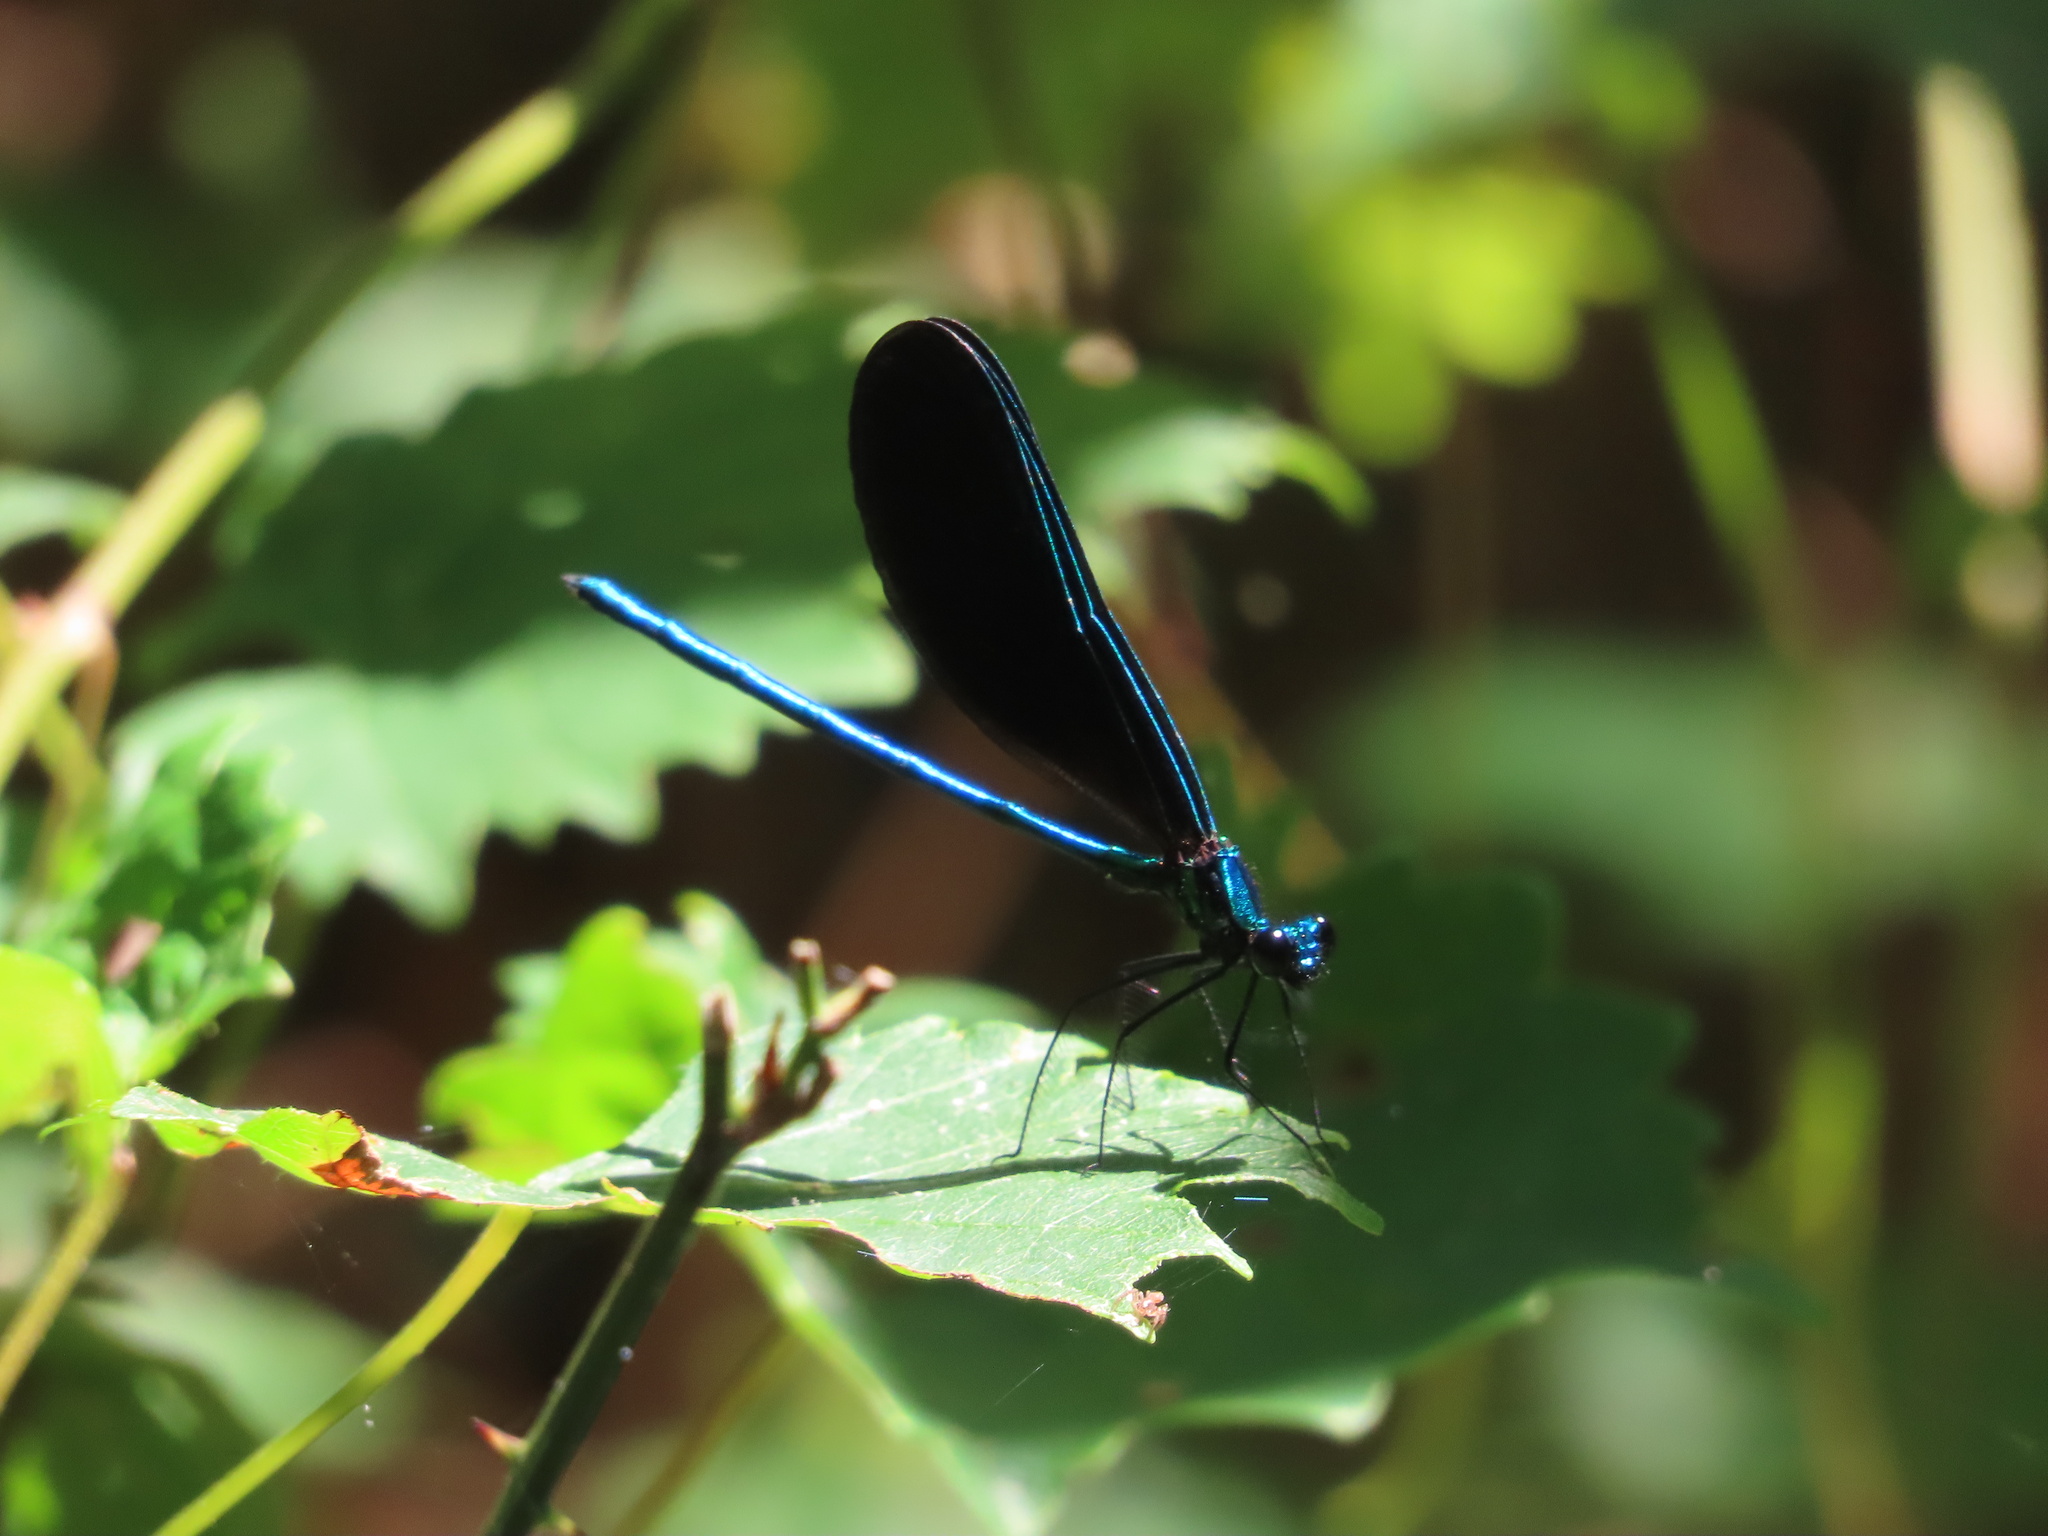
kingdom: Animalia
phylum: Arthropoda
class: Insecta
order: Odonata
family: Calopterygidae
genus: Calopteryx
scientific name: Calopteryx maculata
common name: Ebony jewelwing
